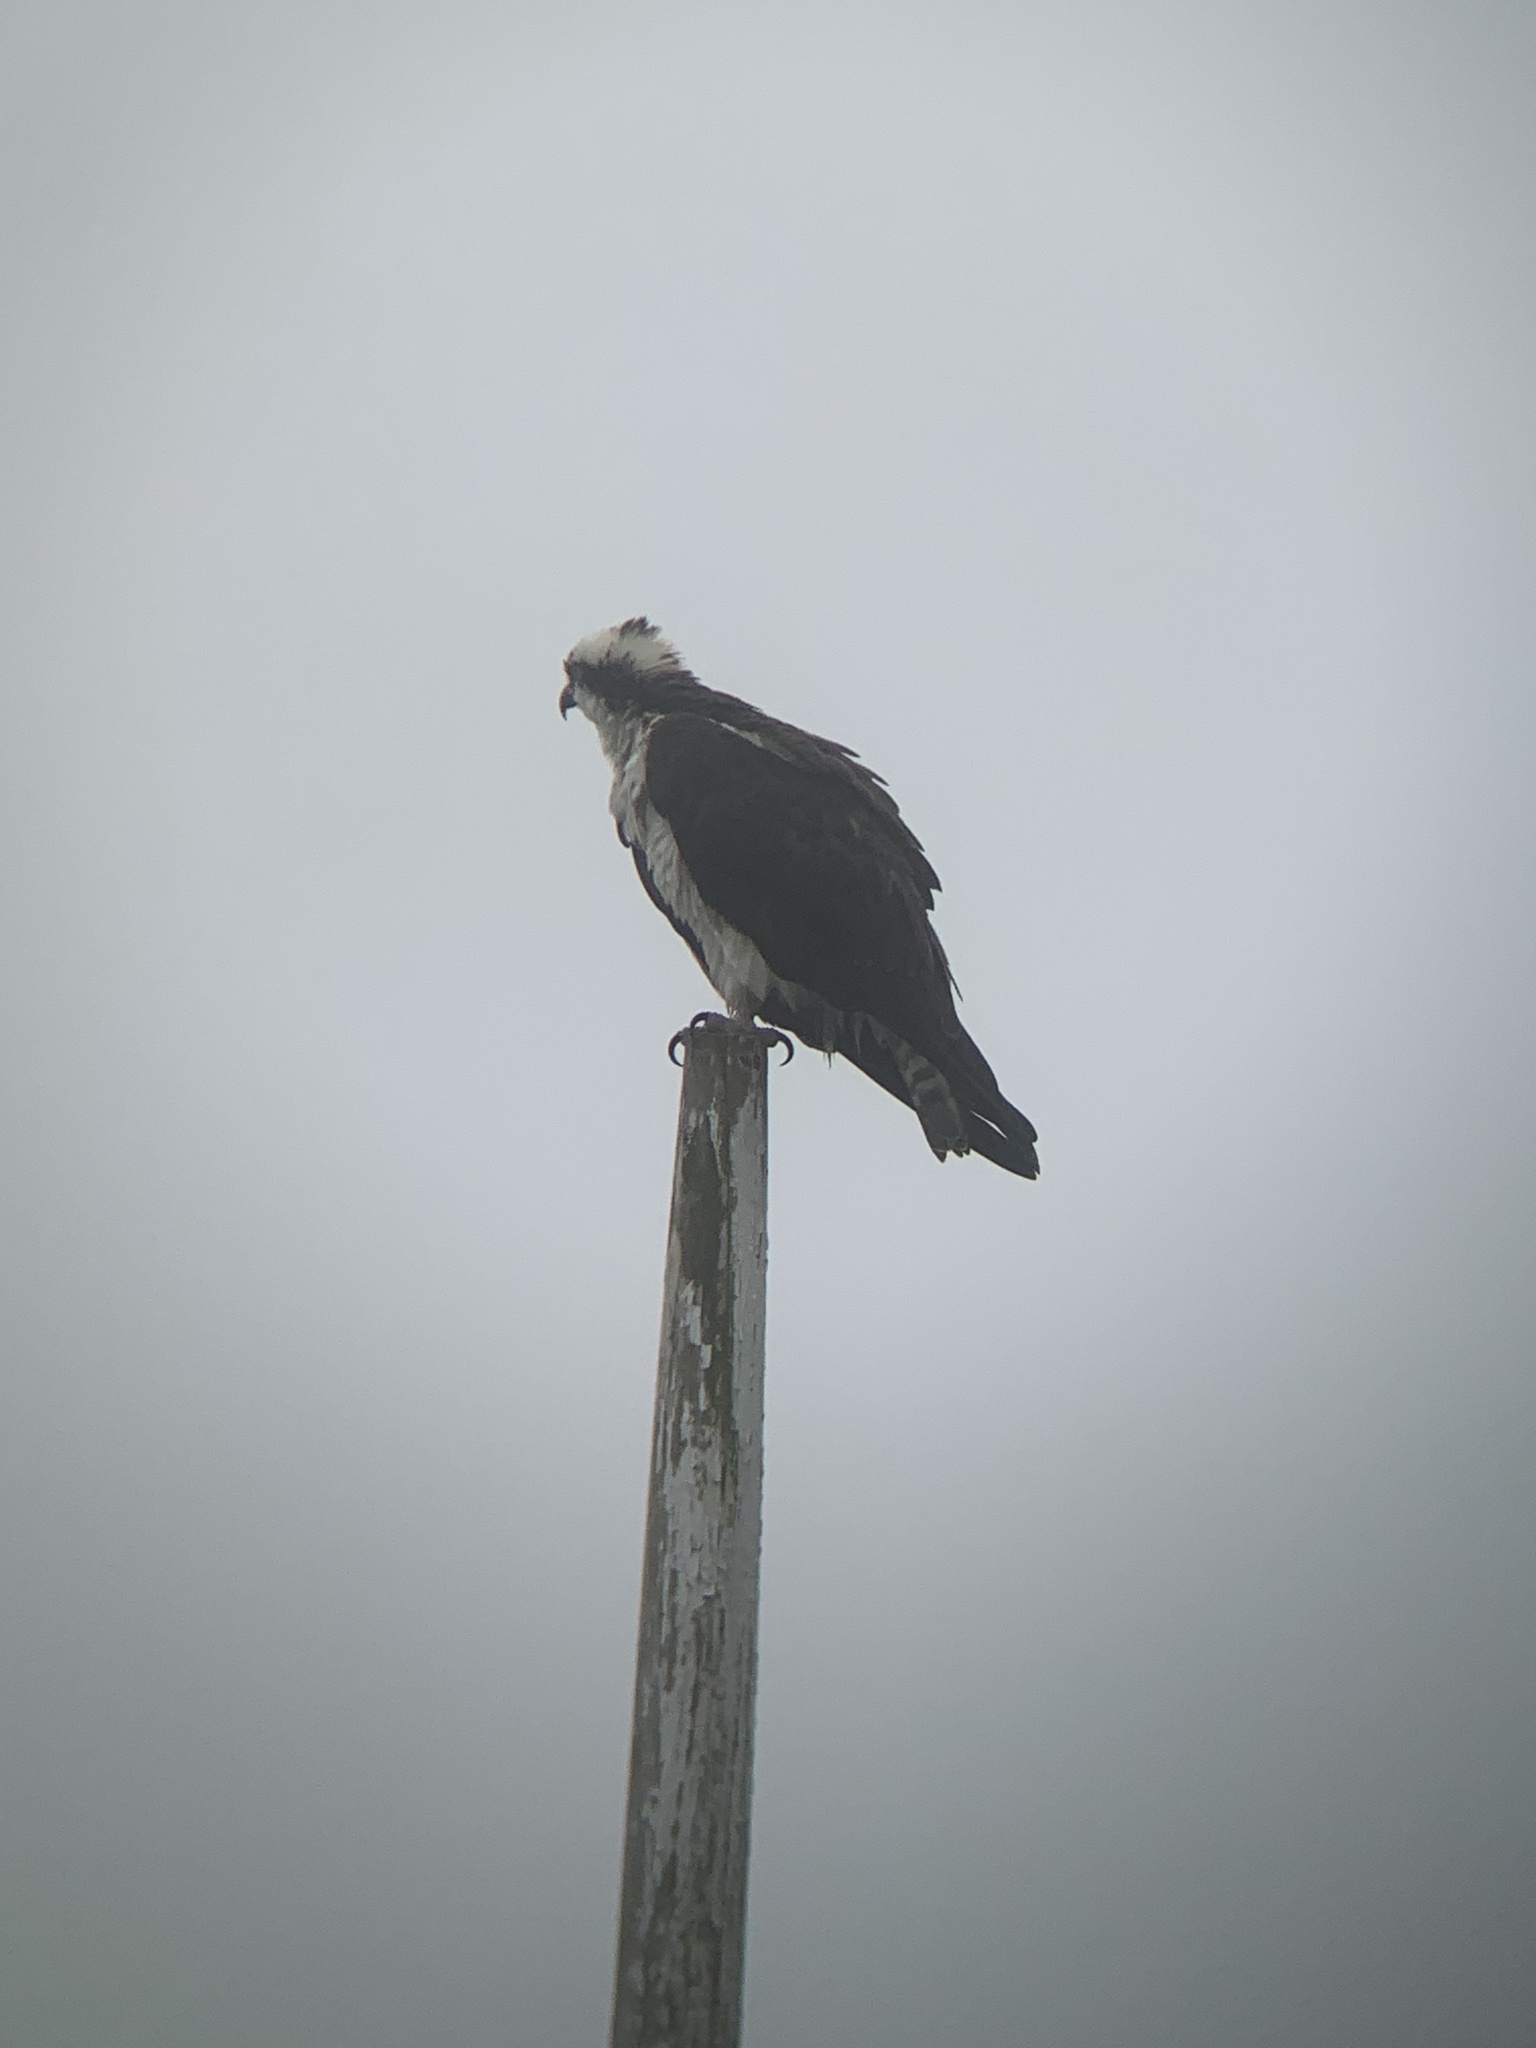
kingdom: Animalia
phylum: Chordata
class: Aves
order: Accipitriformes
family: Pandionidae
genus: Pandion
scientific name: Pandion haliaetus
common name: Osprey
